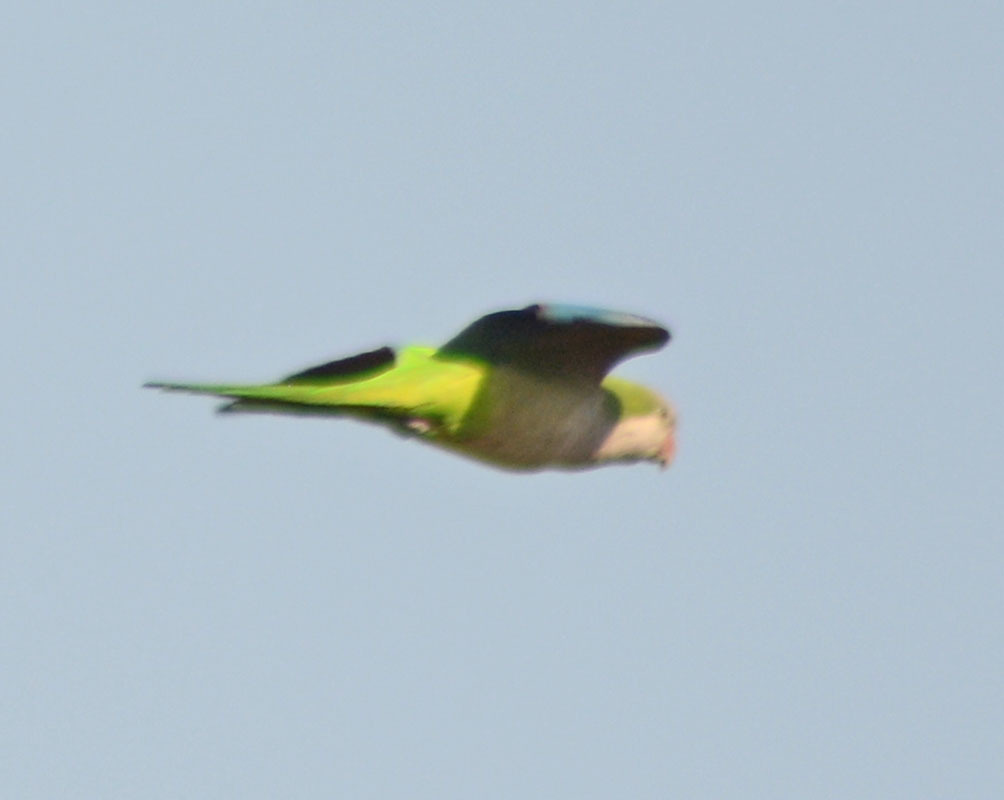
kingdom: Animalia
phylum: Chordata
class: Aves
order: Psittaciformes
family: Psittacidae
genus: Myiopsitta
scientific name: Myiopsitta monachus
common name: Monk parakeet
